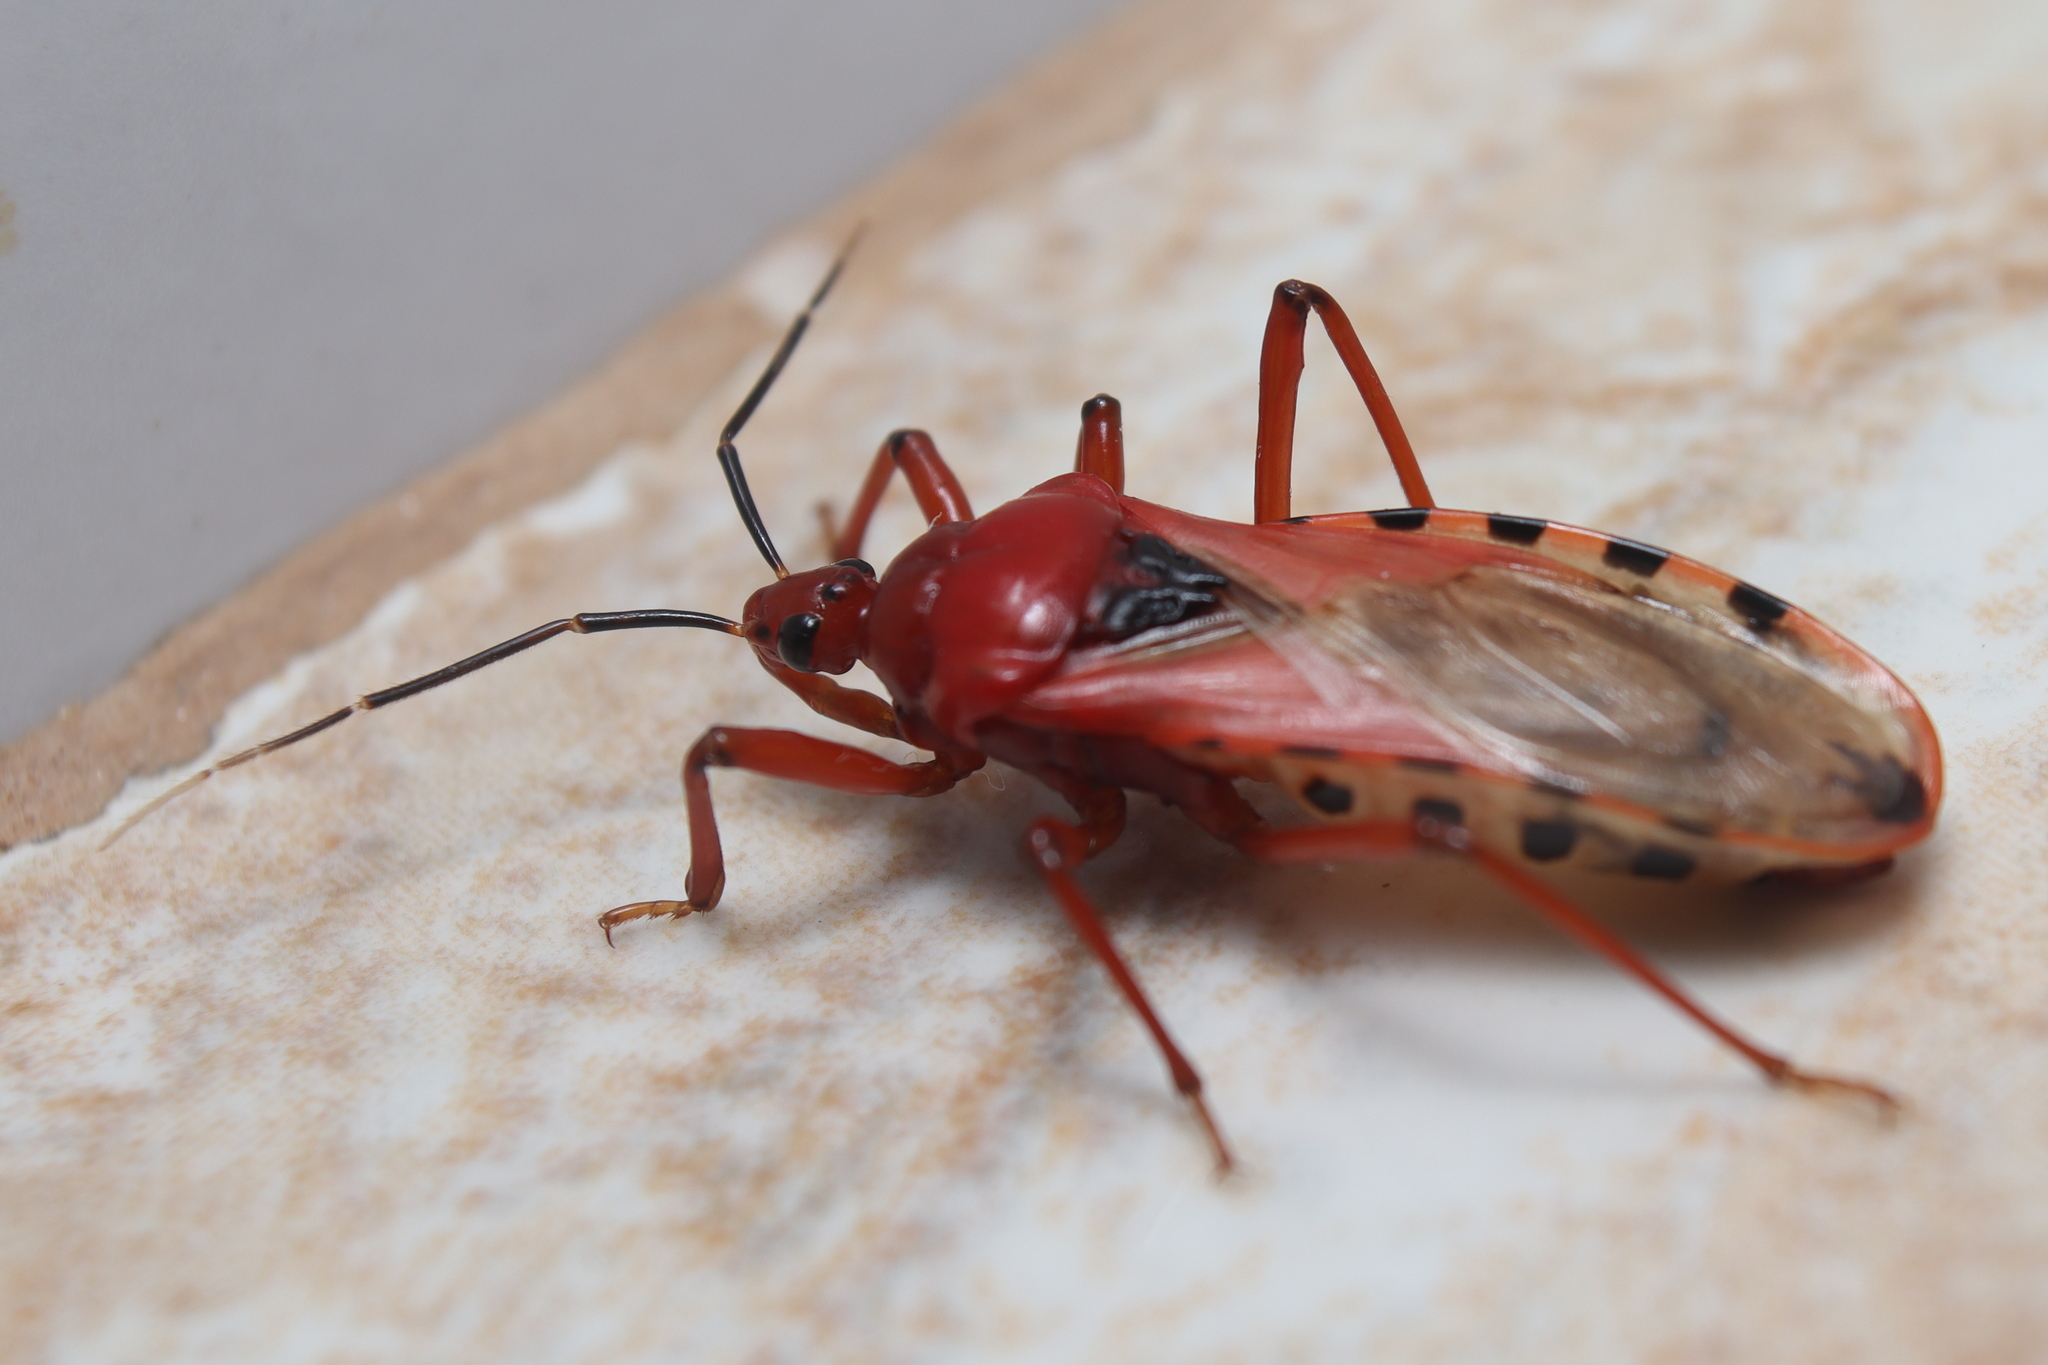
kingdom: Animalia
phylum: Arthropoda
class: Insecta
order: Hemiptera
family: Reduviidae
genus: Brontostoma
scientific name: Brontostoma rubrum
